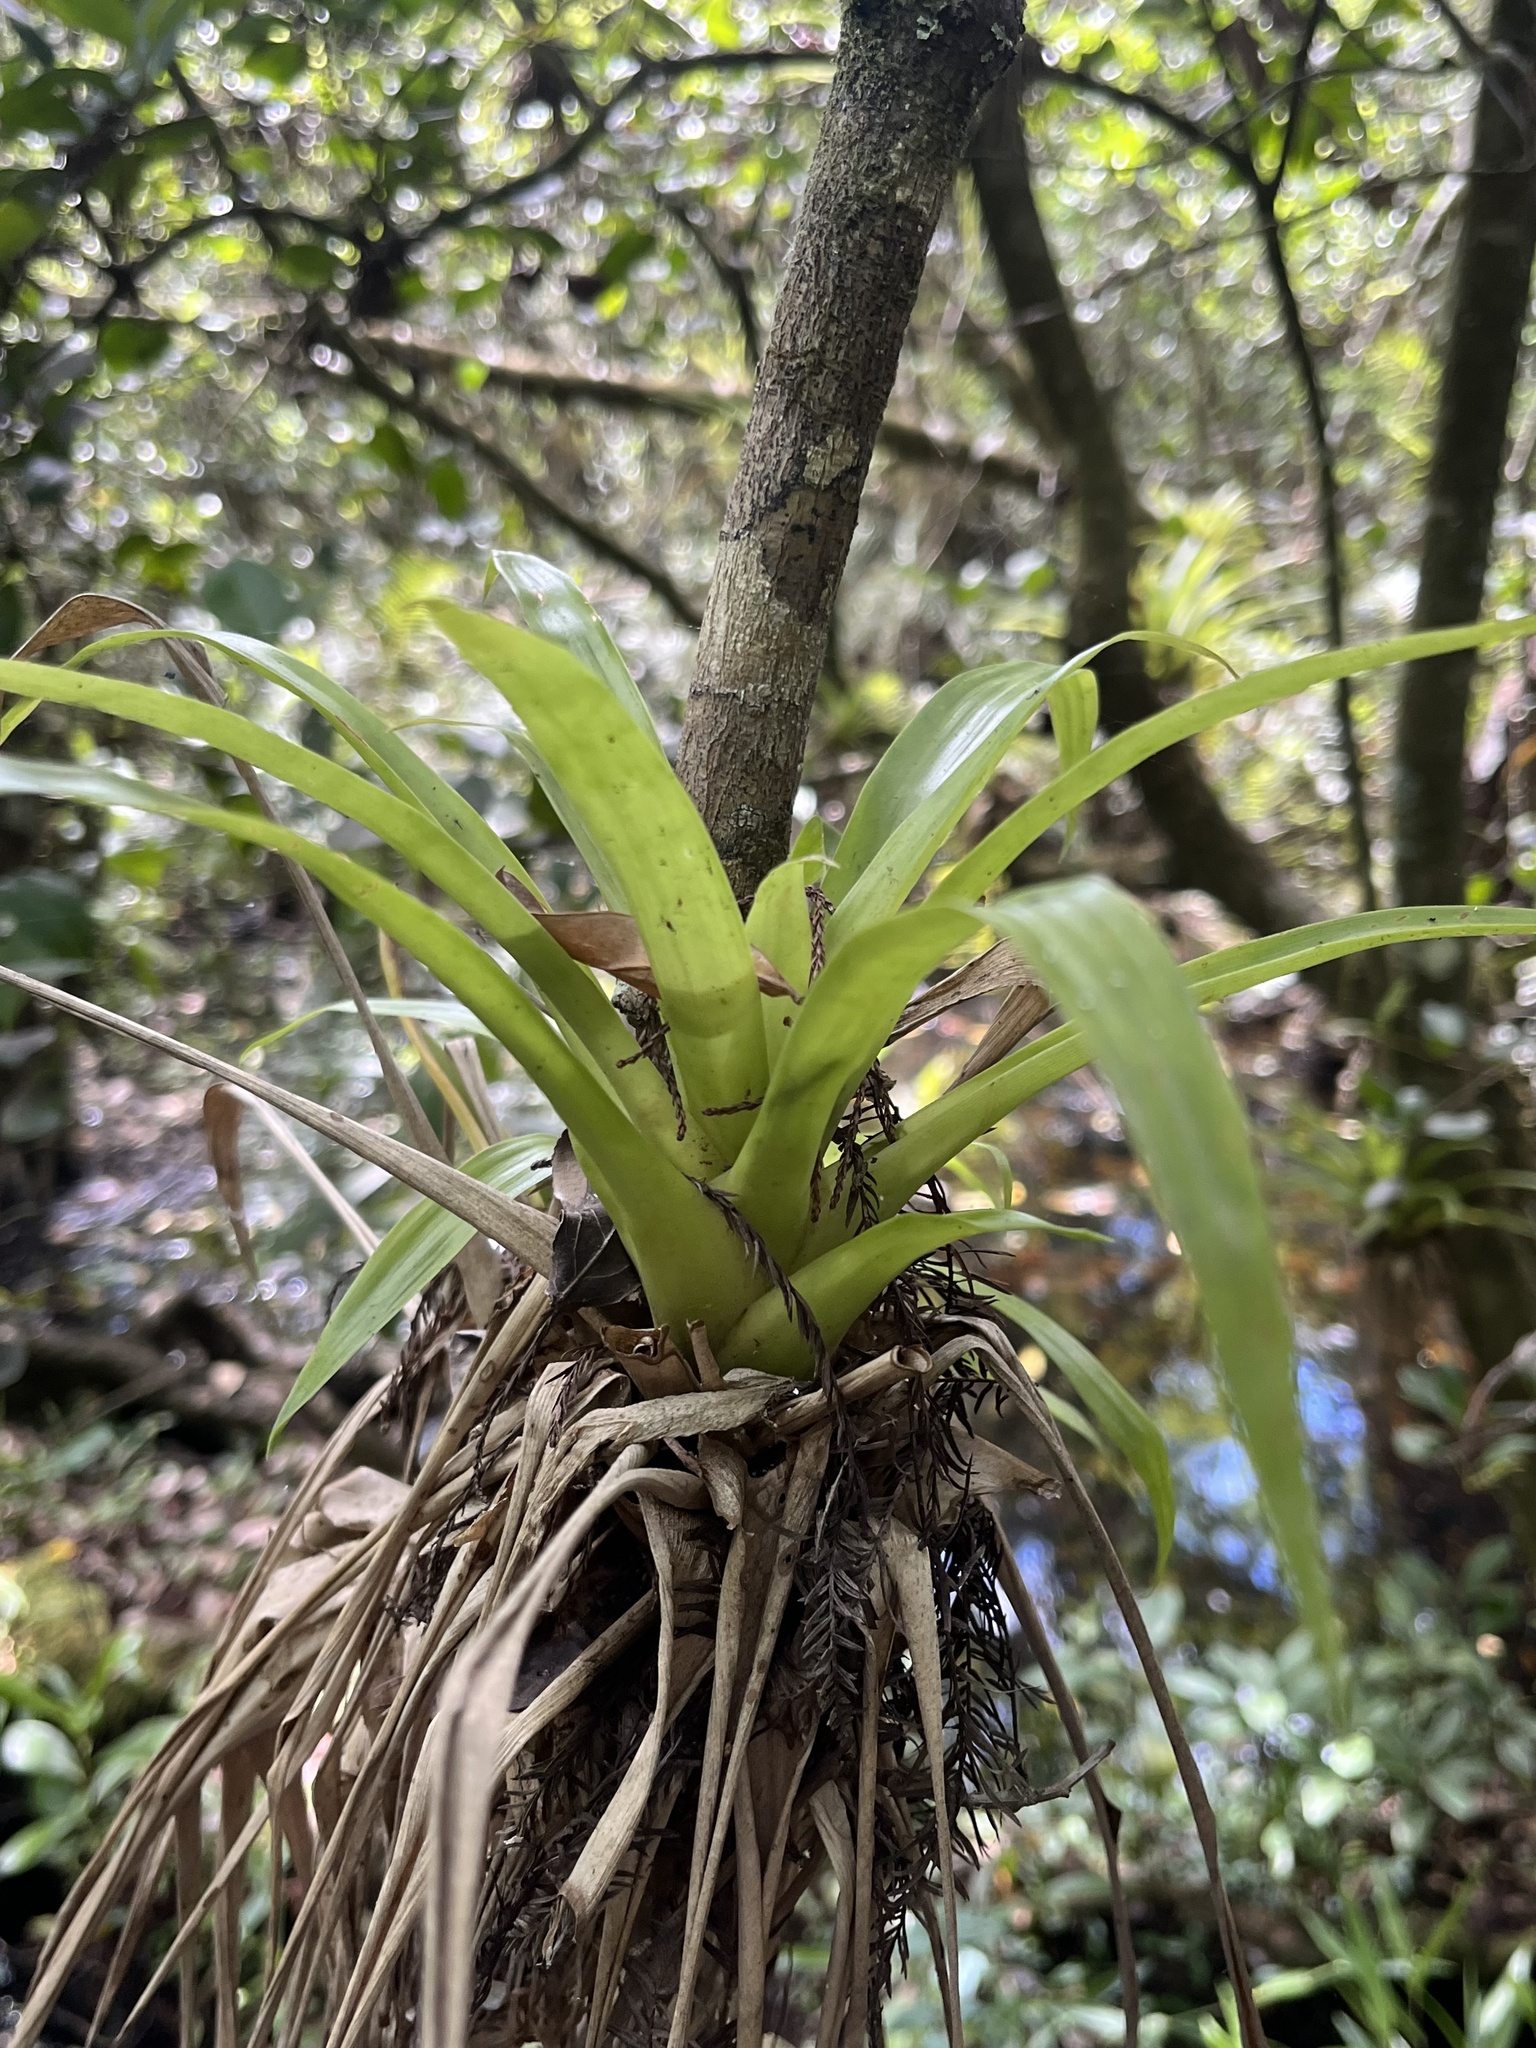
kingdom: Plantae
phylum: Tracheophyta
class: Liliopsida
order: Poales
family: Bromeliaceae
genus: Guzmania
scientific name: Guzmania monostachia
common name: West indian tufted airplant
